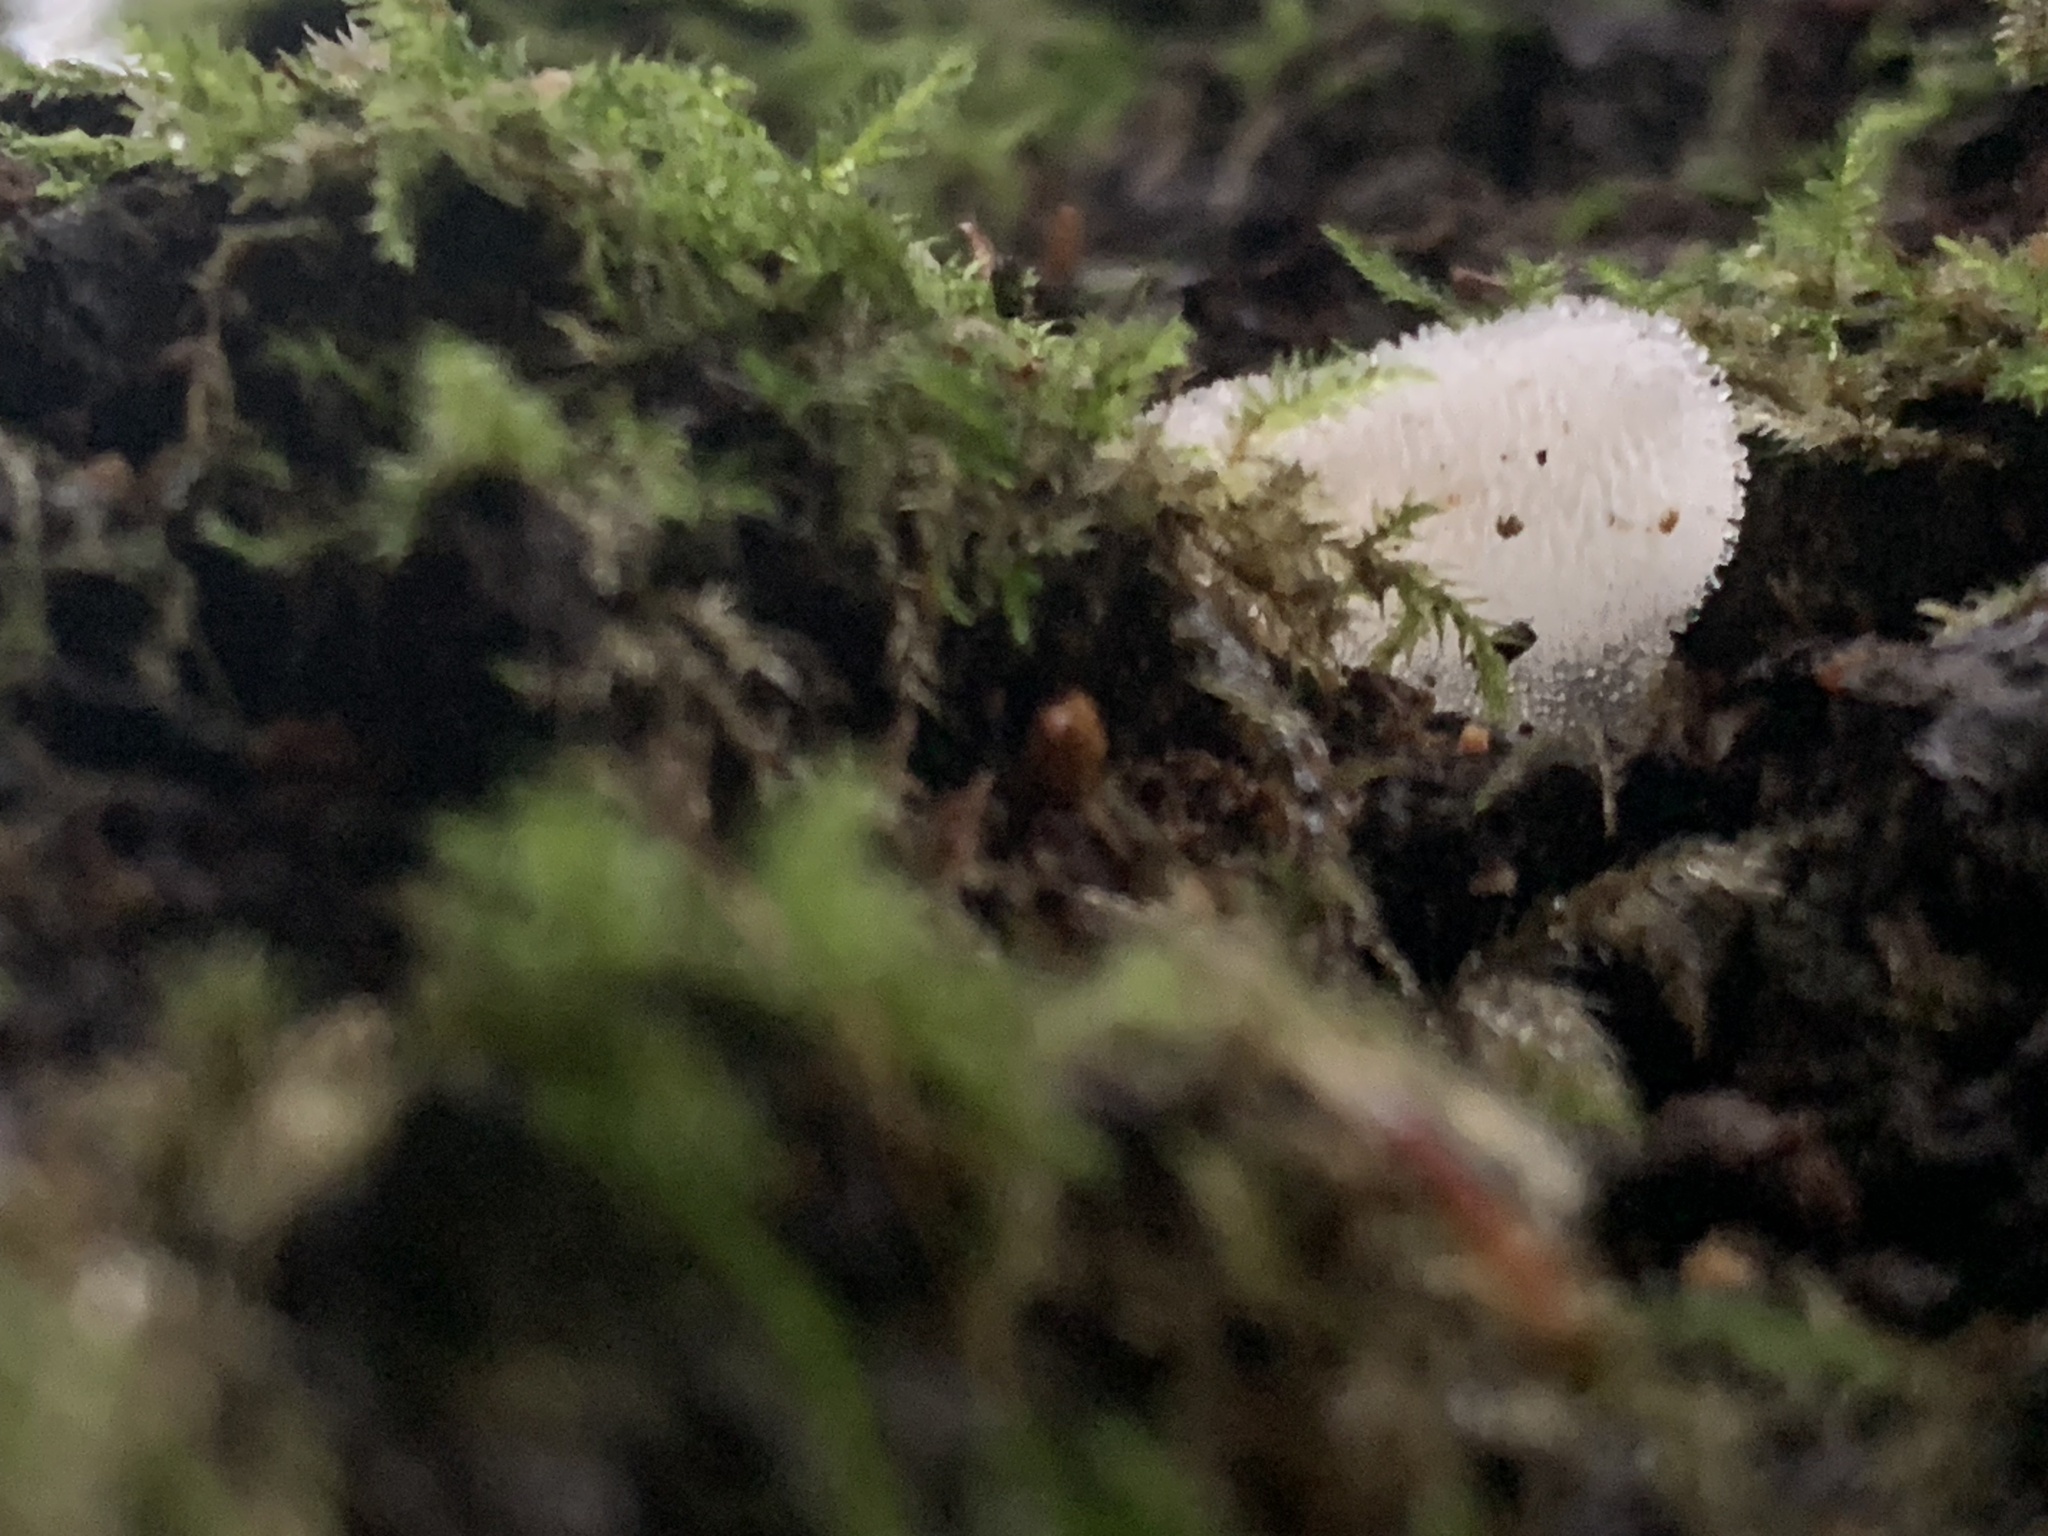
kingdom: Fungi
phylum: Basidiomycota
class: Agaricomycetes
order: Auriculariales
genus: Pseudohydnum
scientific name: Pseudohydnum gelatinosum
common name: Jelly tongue
